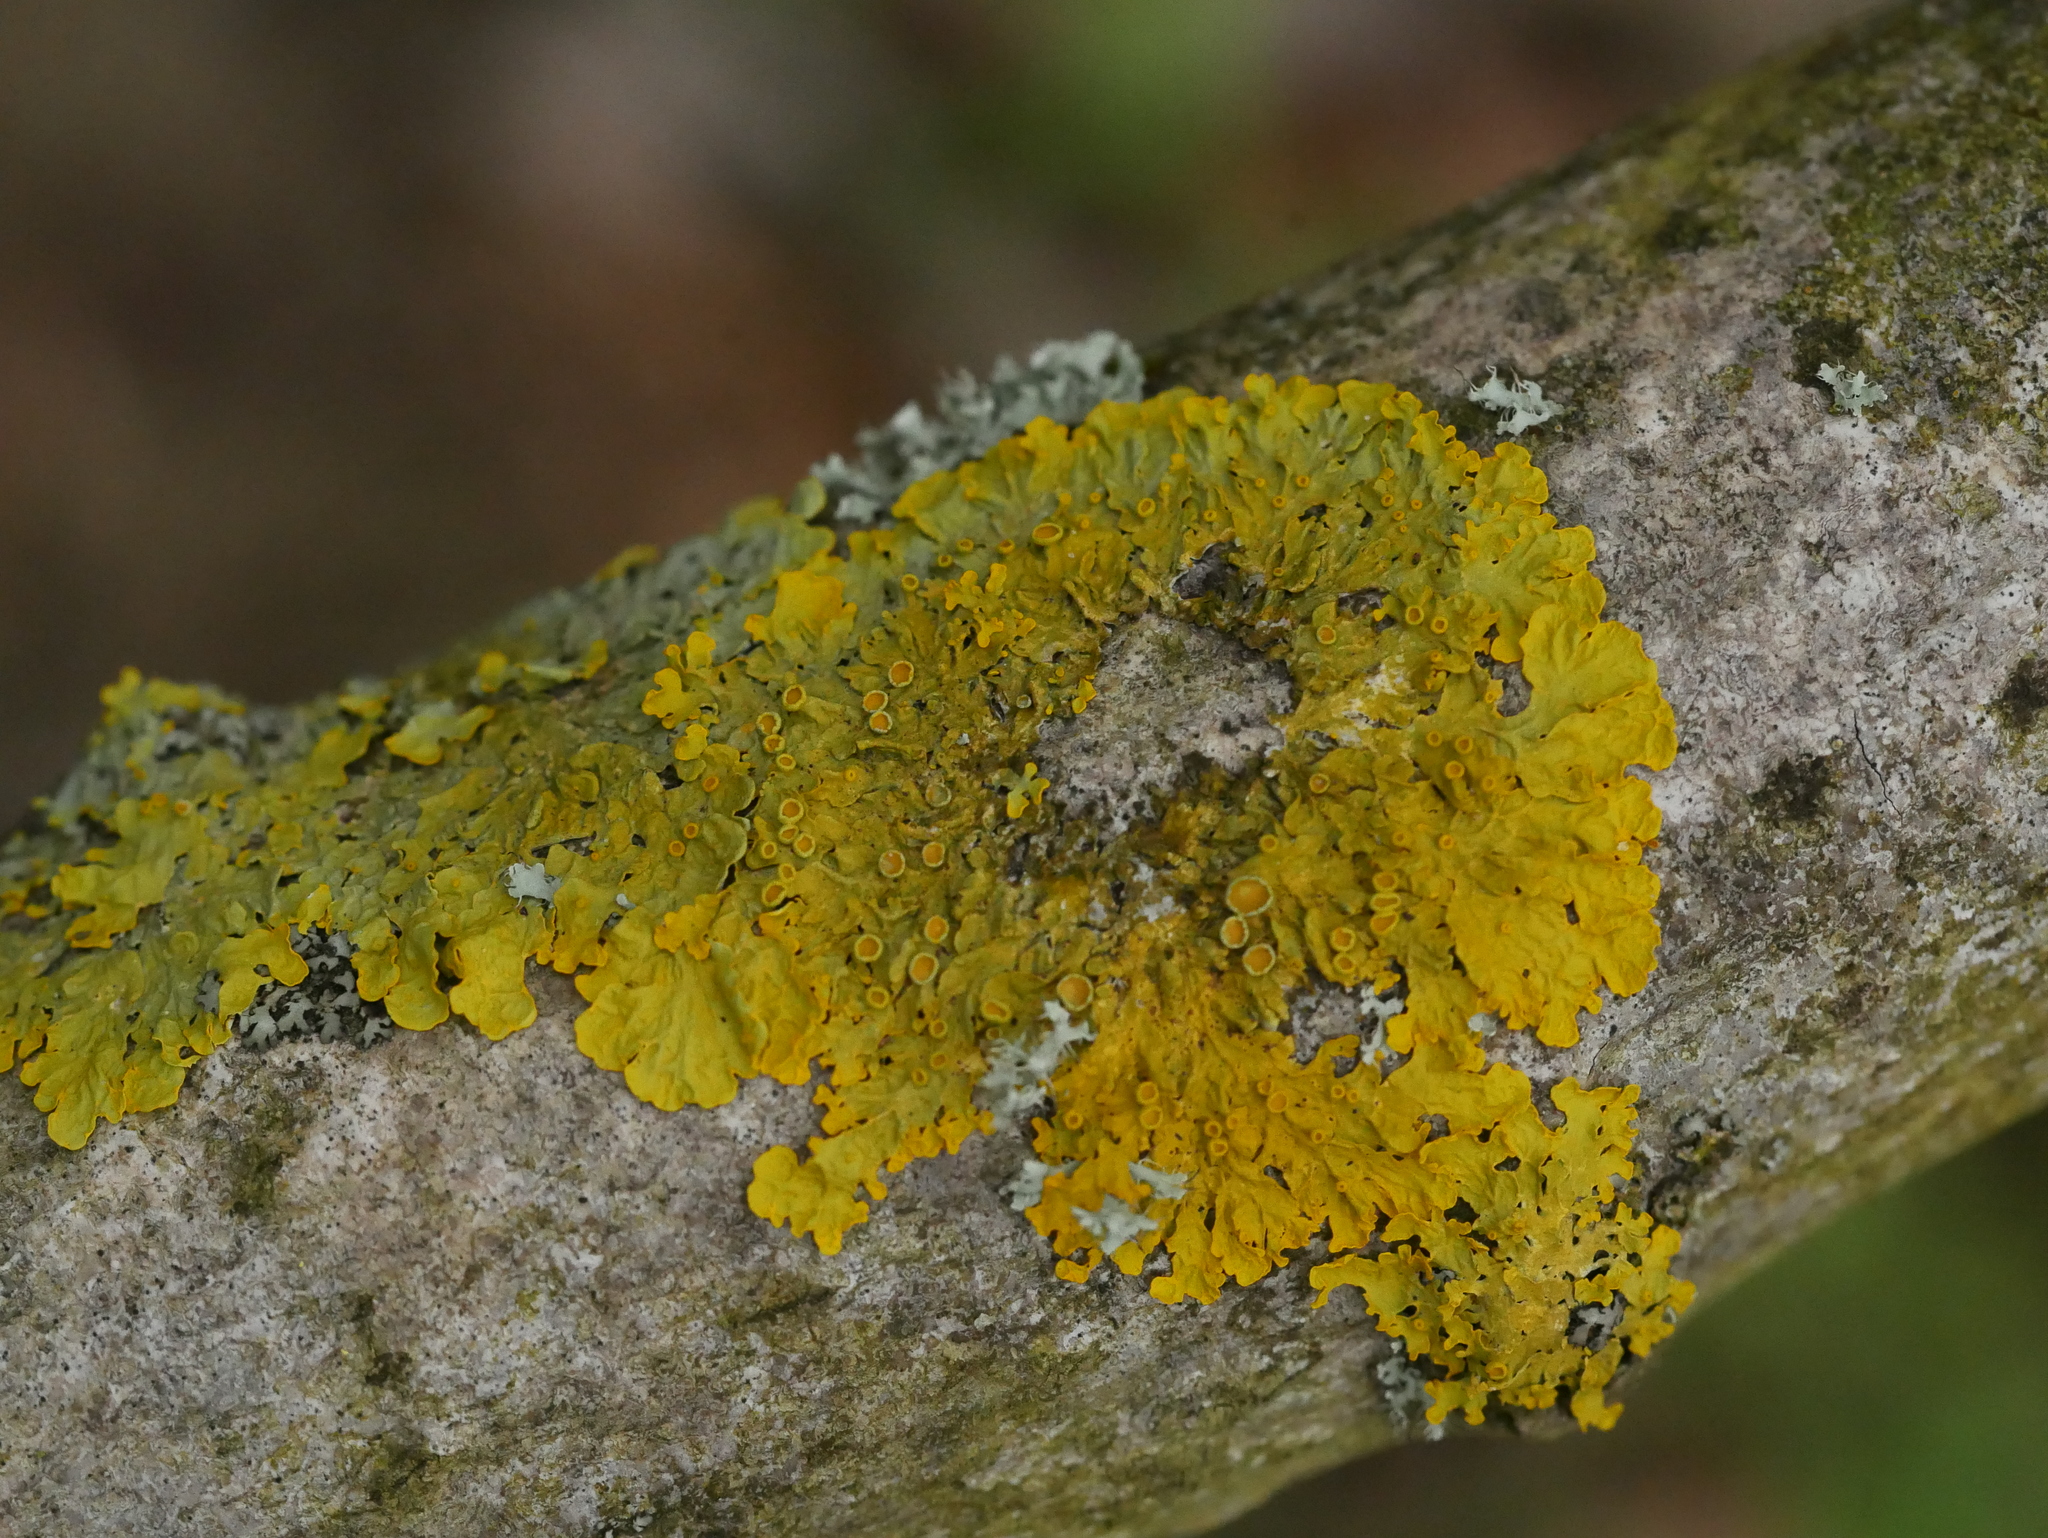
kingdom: Fungi
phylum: Ascomycota
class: Lecanoromycetes
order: Teloschistales
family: Teloschistaceae
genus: Xanthoria
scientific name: Xanthoria parietina
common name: Common orange lichen
